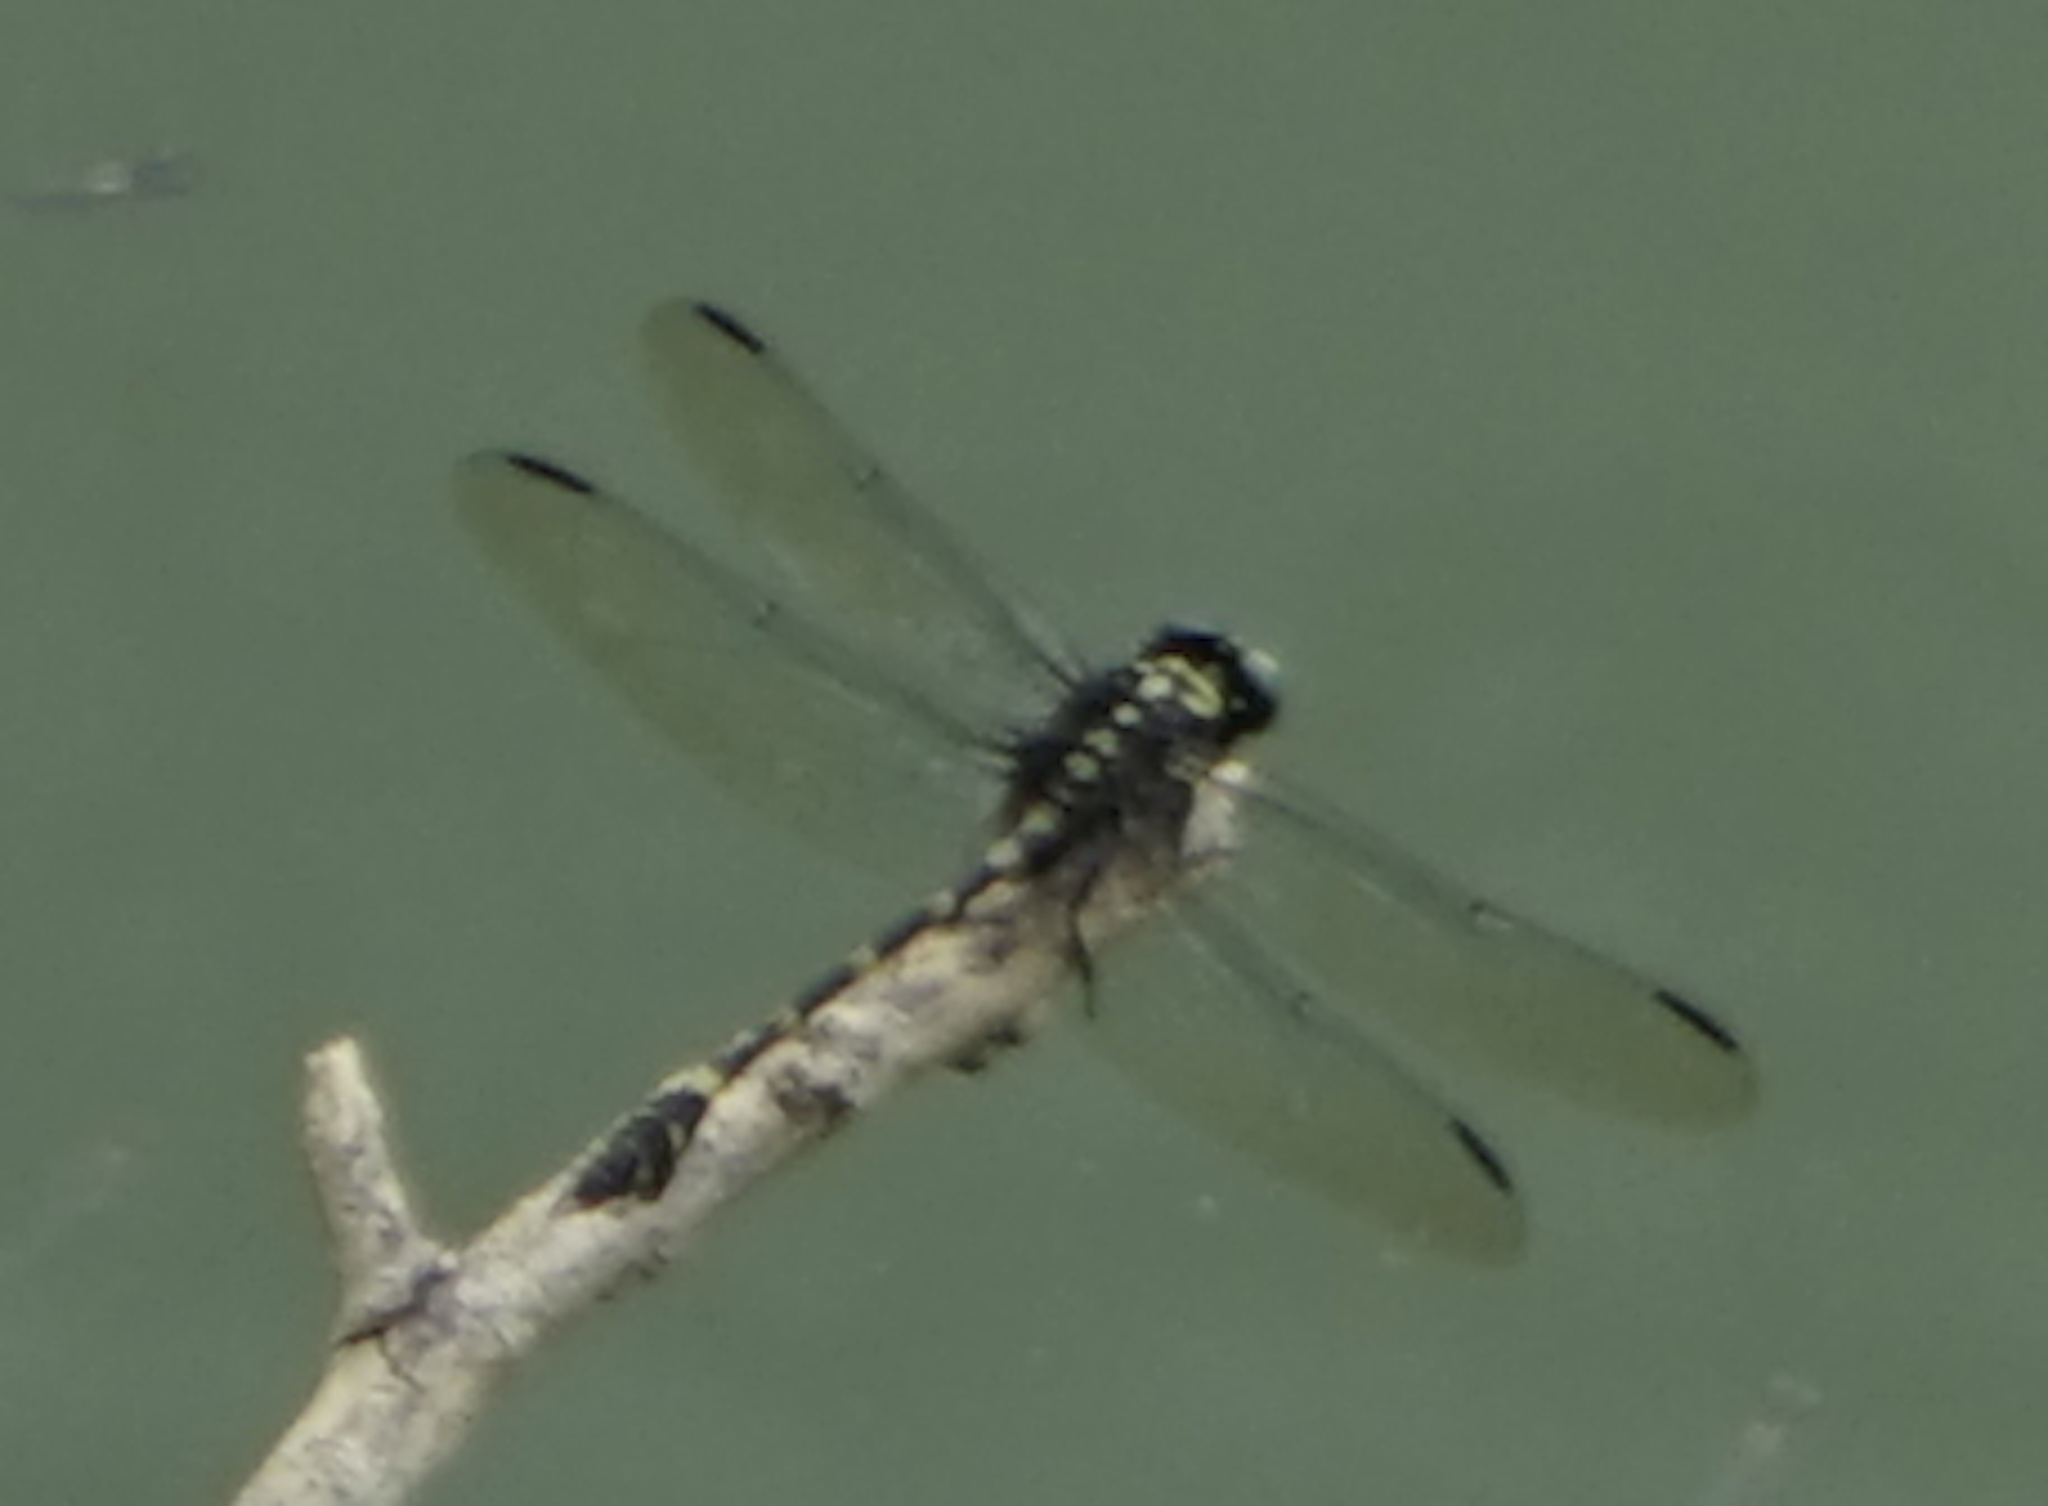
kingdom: Animalia
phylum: Arthropoda
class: Insecta
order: Odonata
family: Gomphidae
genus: Ictinogomphus
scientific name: Ictinogomphus decoratus
